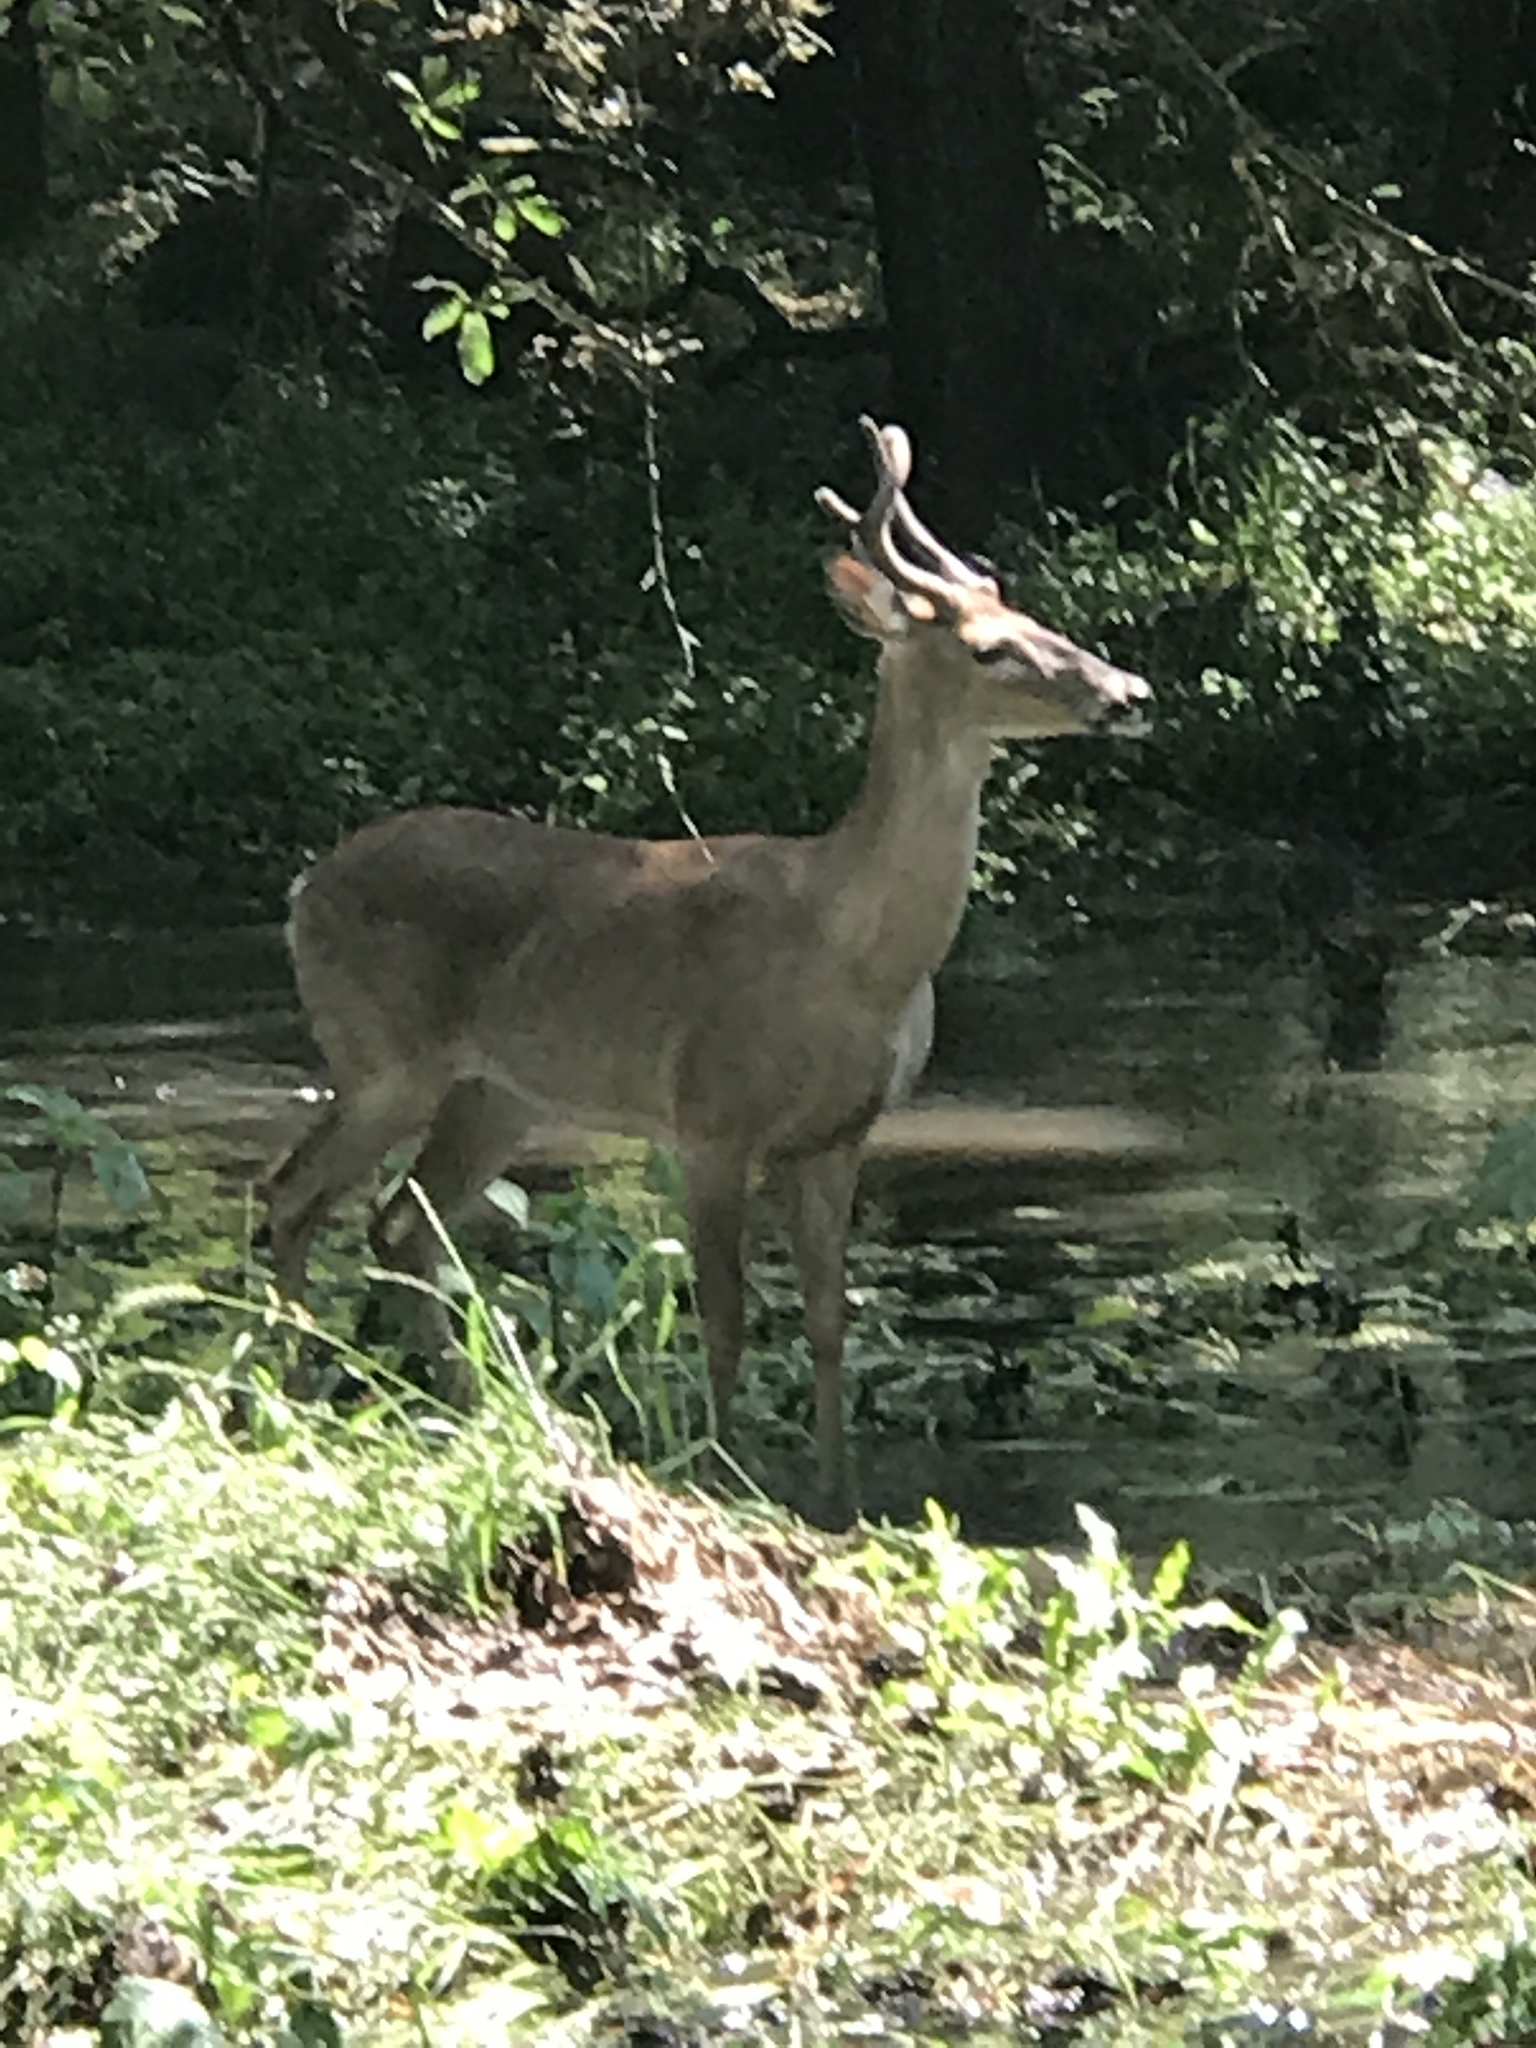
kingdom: Animalia
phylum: Chordata
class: Mammalia
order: Artiodactyla
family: Cervidae
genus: Odocoileus
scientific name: Odocoileus virginianus
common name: White-tailed deer
